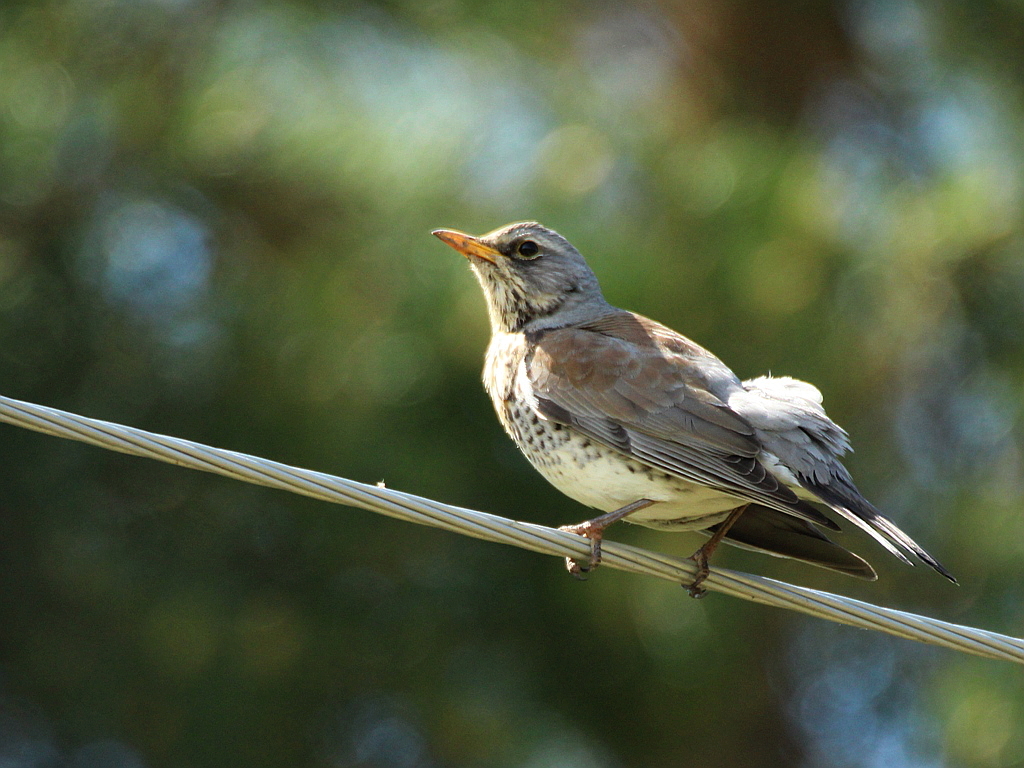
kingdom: Animalia
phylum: Chordata
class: Aves
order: Passeriformes
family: Turdidae
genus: Turdus
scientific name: Turdus pilaris
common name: Fieldfare
